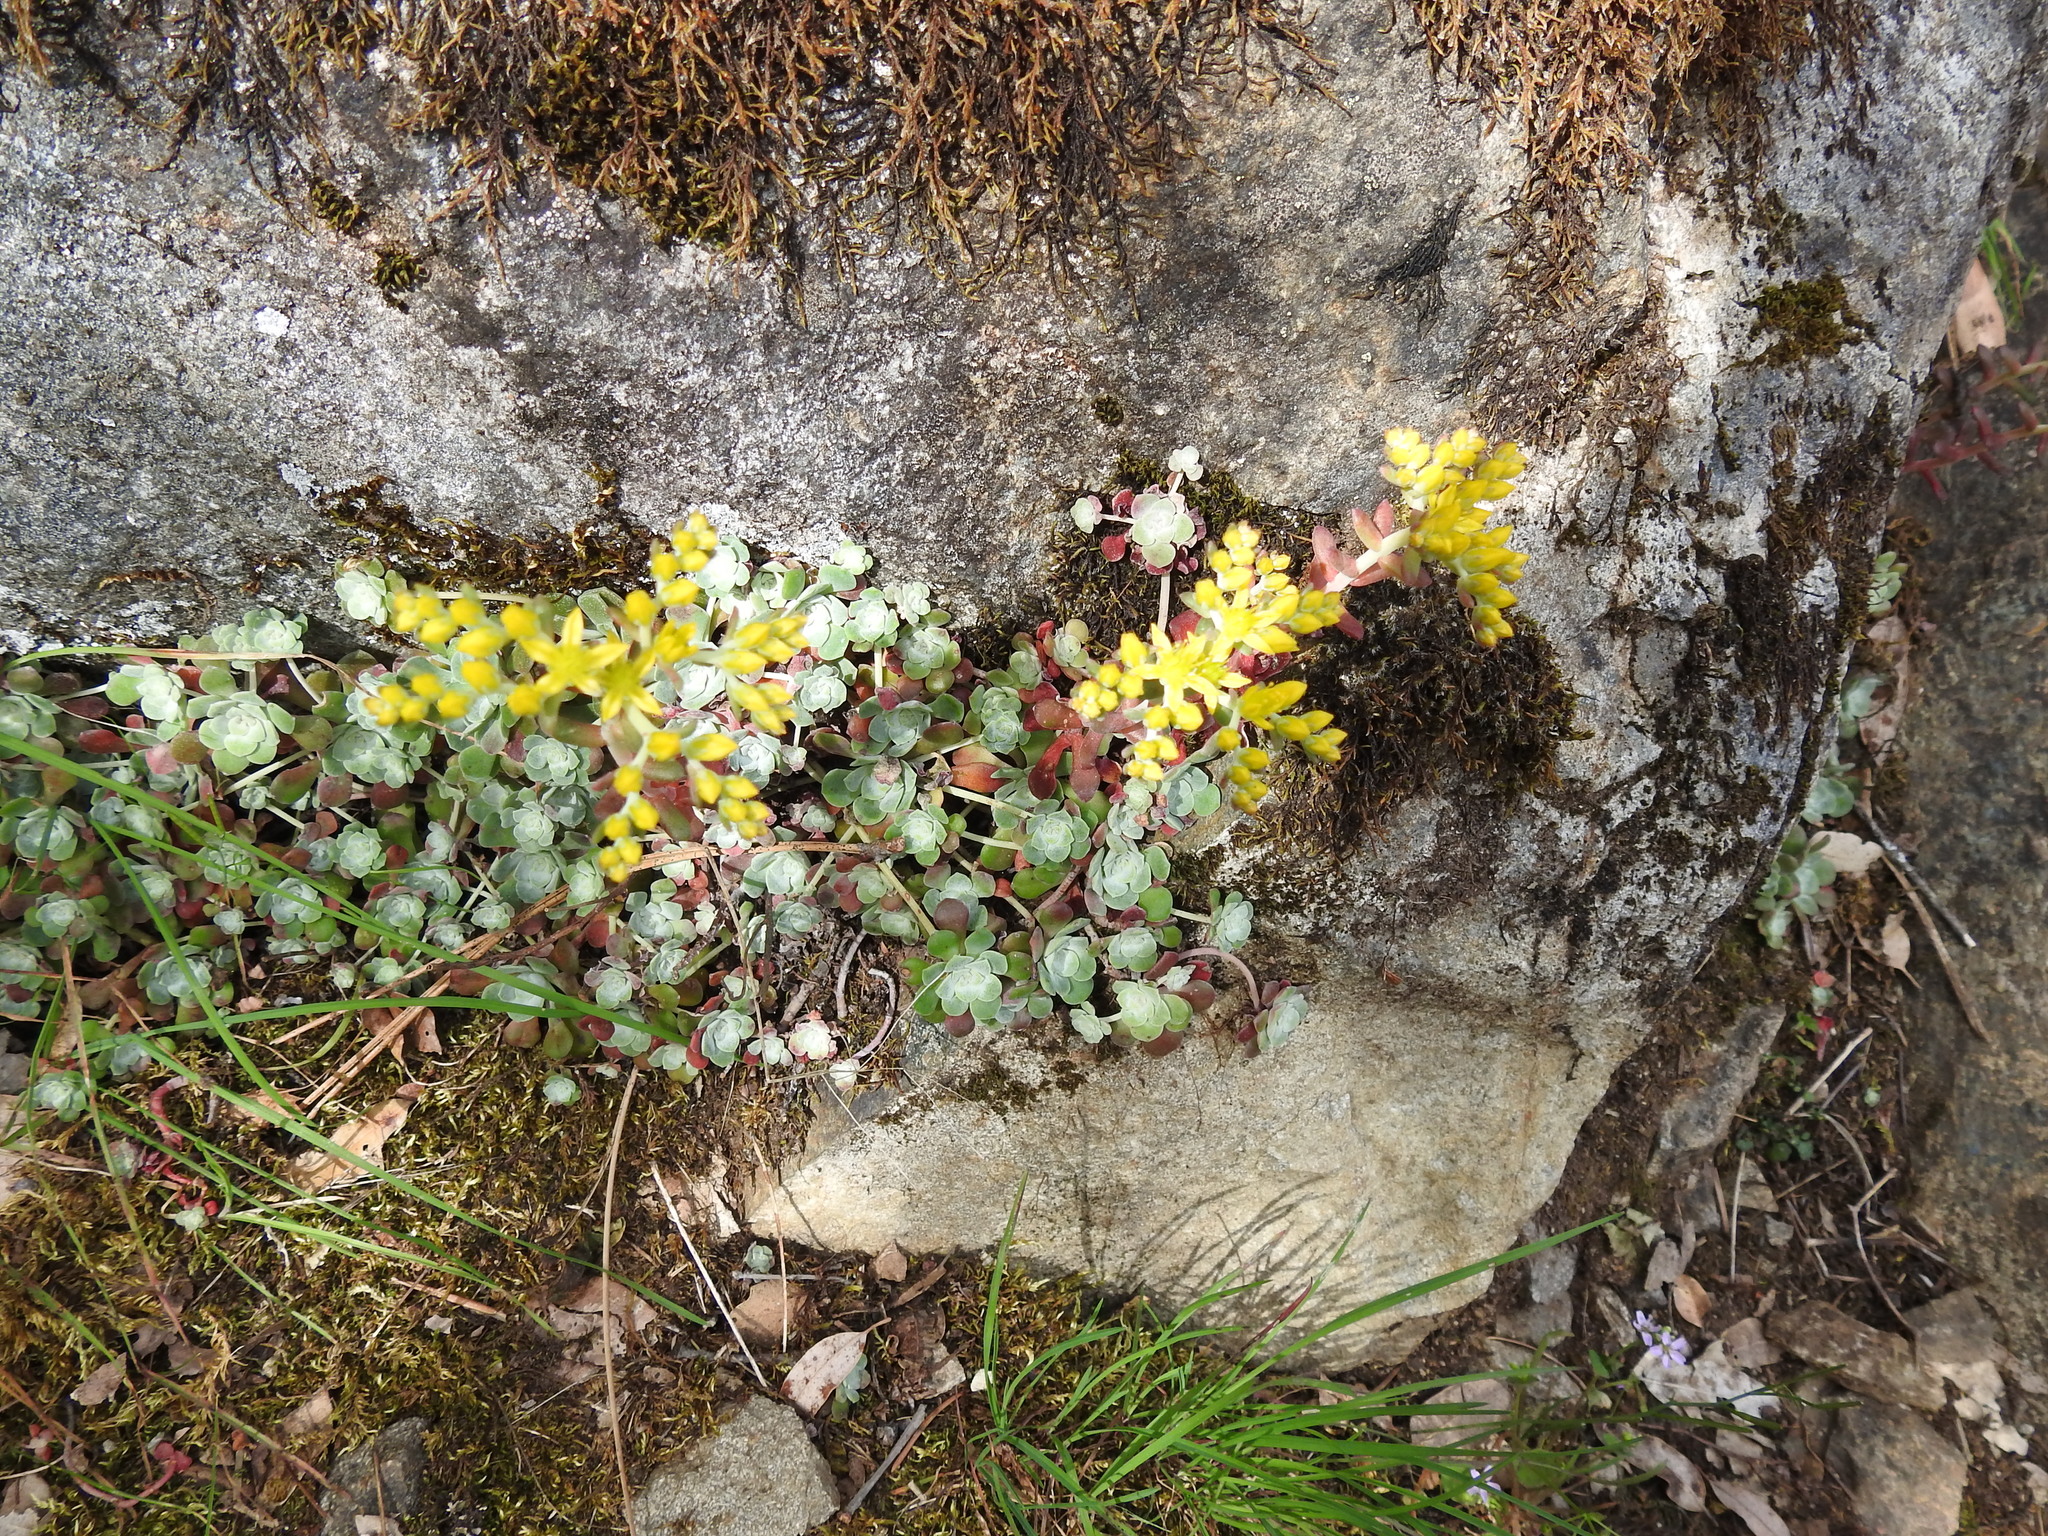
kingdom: Plantae
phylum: Tracheophyta
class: Magnoliopsida
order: Saxifragales
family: Crassulaceae
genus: Sedum
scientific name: Sedum spathulifolium
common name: Colorado stonecrop
